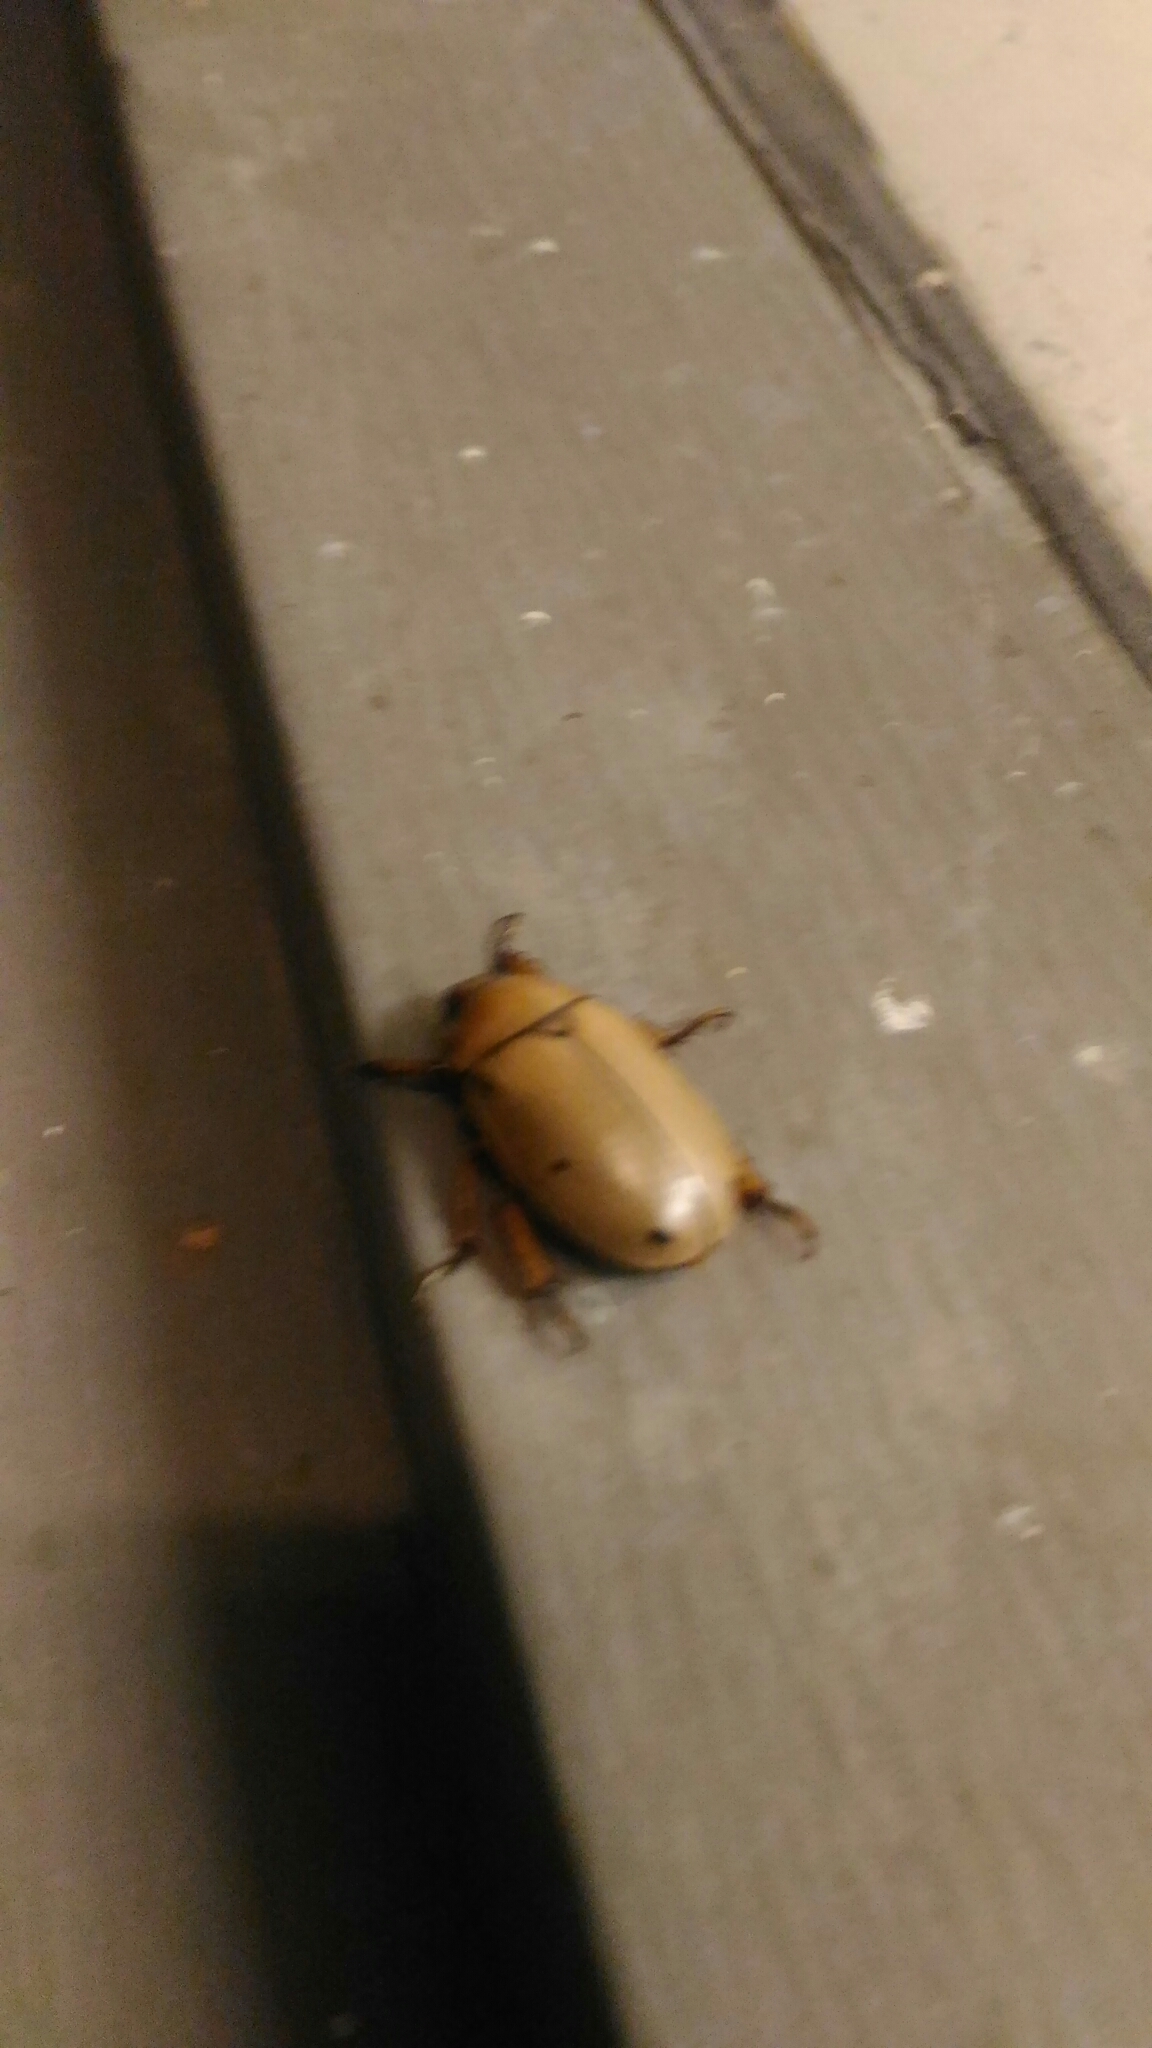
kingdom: Animalia
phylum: Arthropoda
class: Insecta
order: Coleoptera
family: Scarabaeidae
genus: Pelidnota
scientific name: Pelidnota punctata
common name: Grapevine beetle
